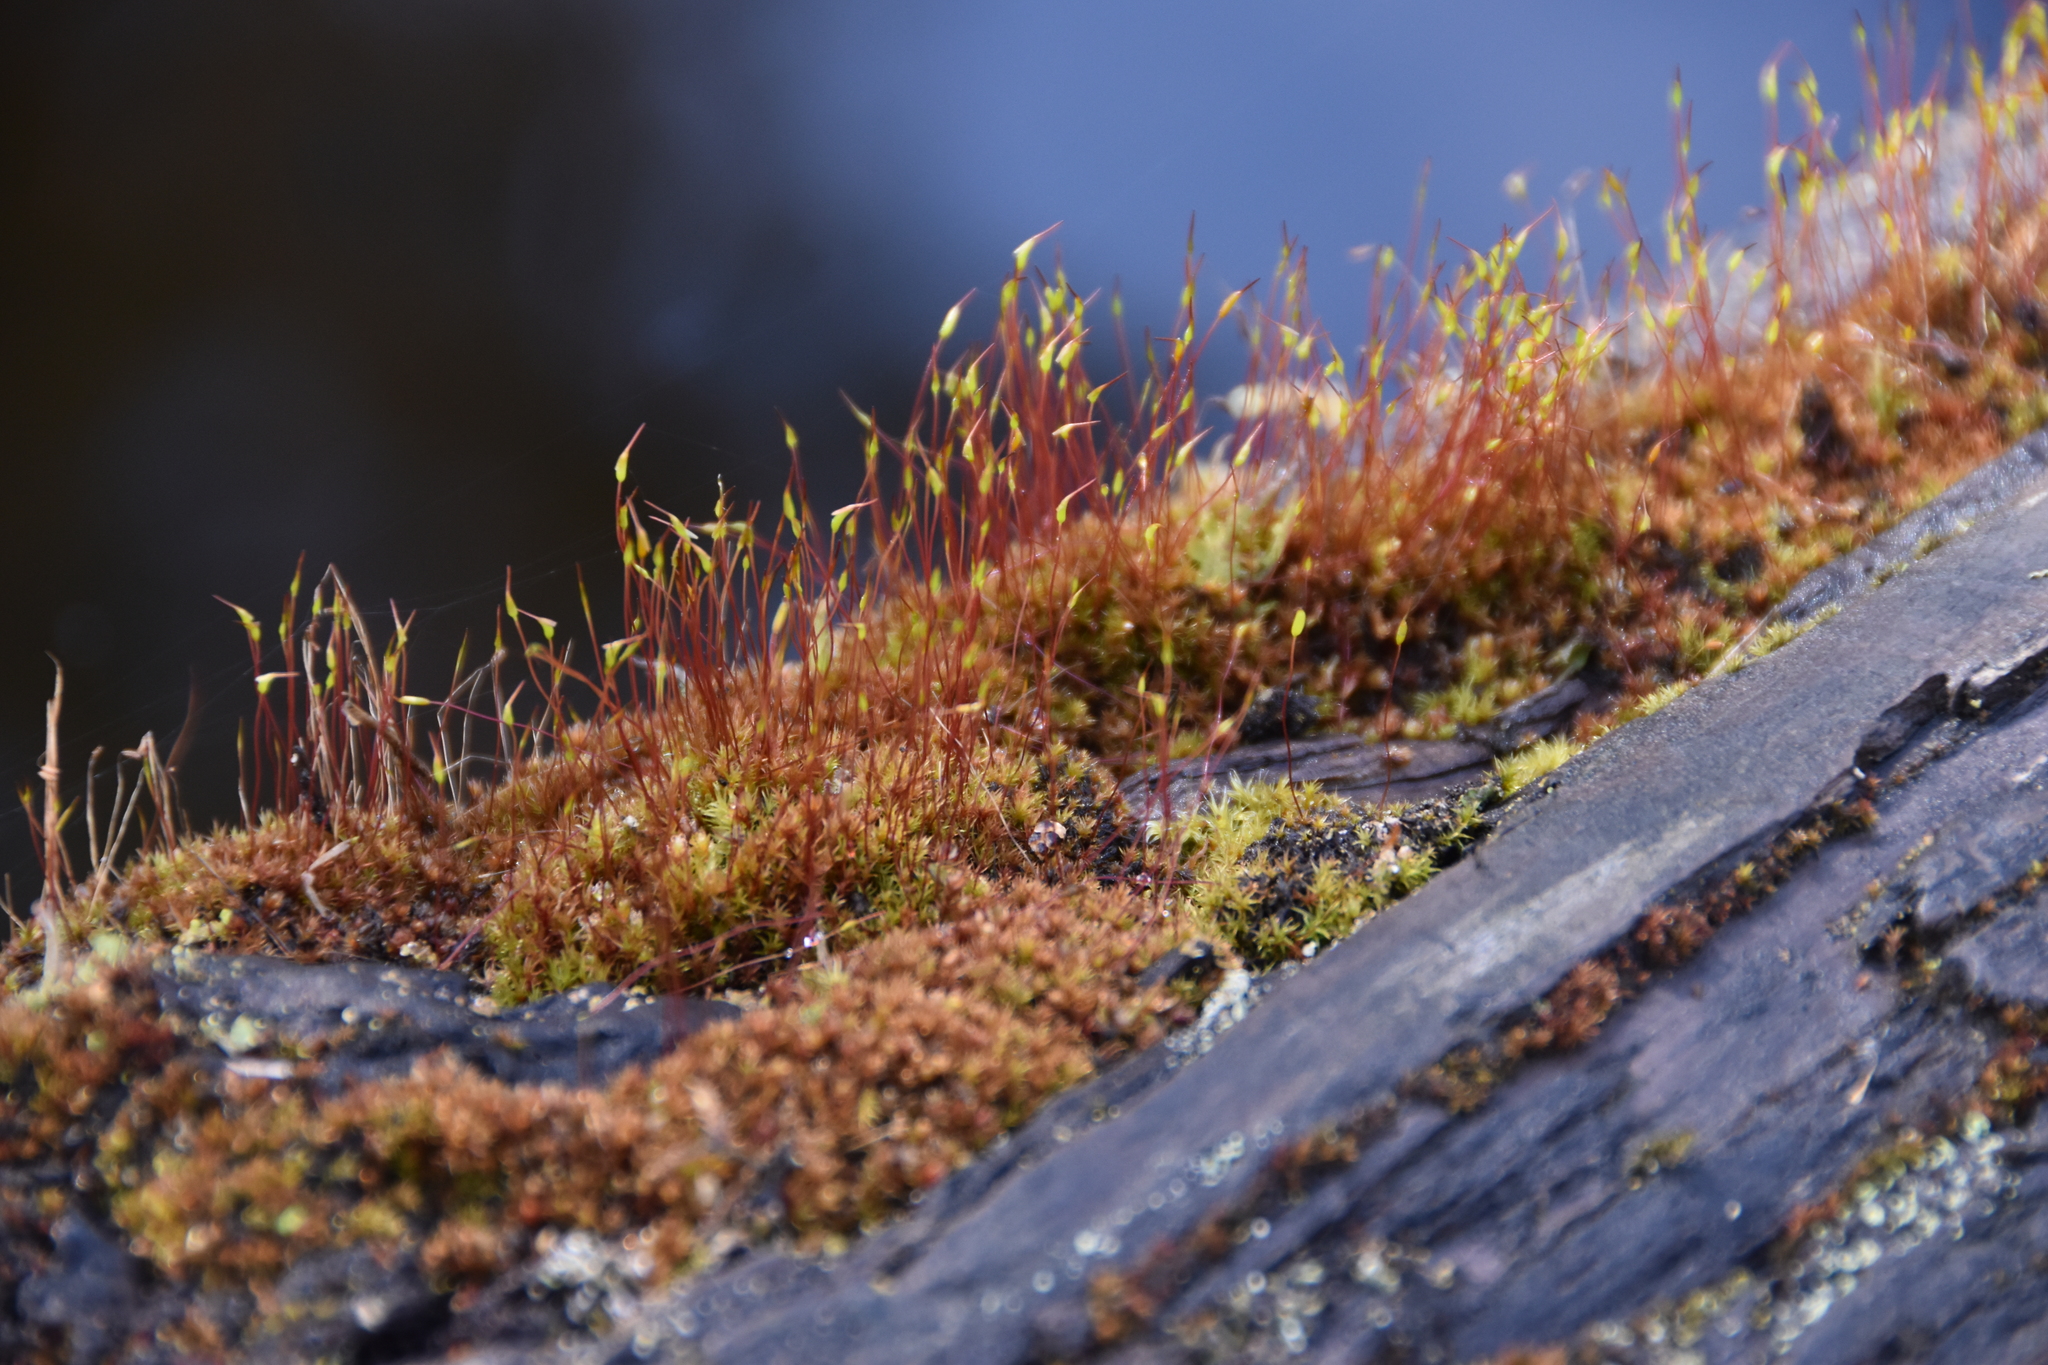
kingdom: Plantae
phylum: Bryophyta
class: Bryopsida
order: Dicranales
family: Ditrichaceae
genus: Ceratodon
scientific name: Ceratodon purpureus
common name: Redshank
